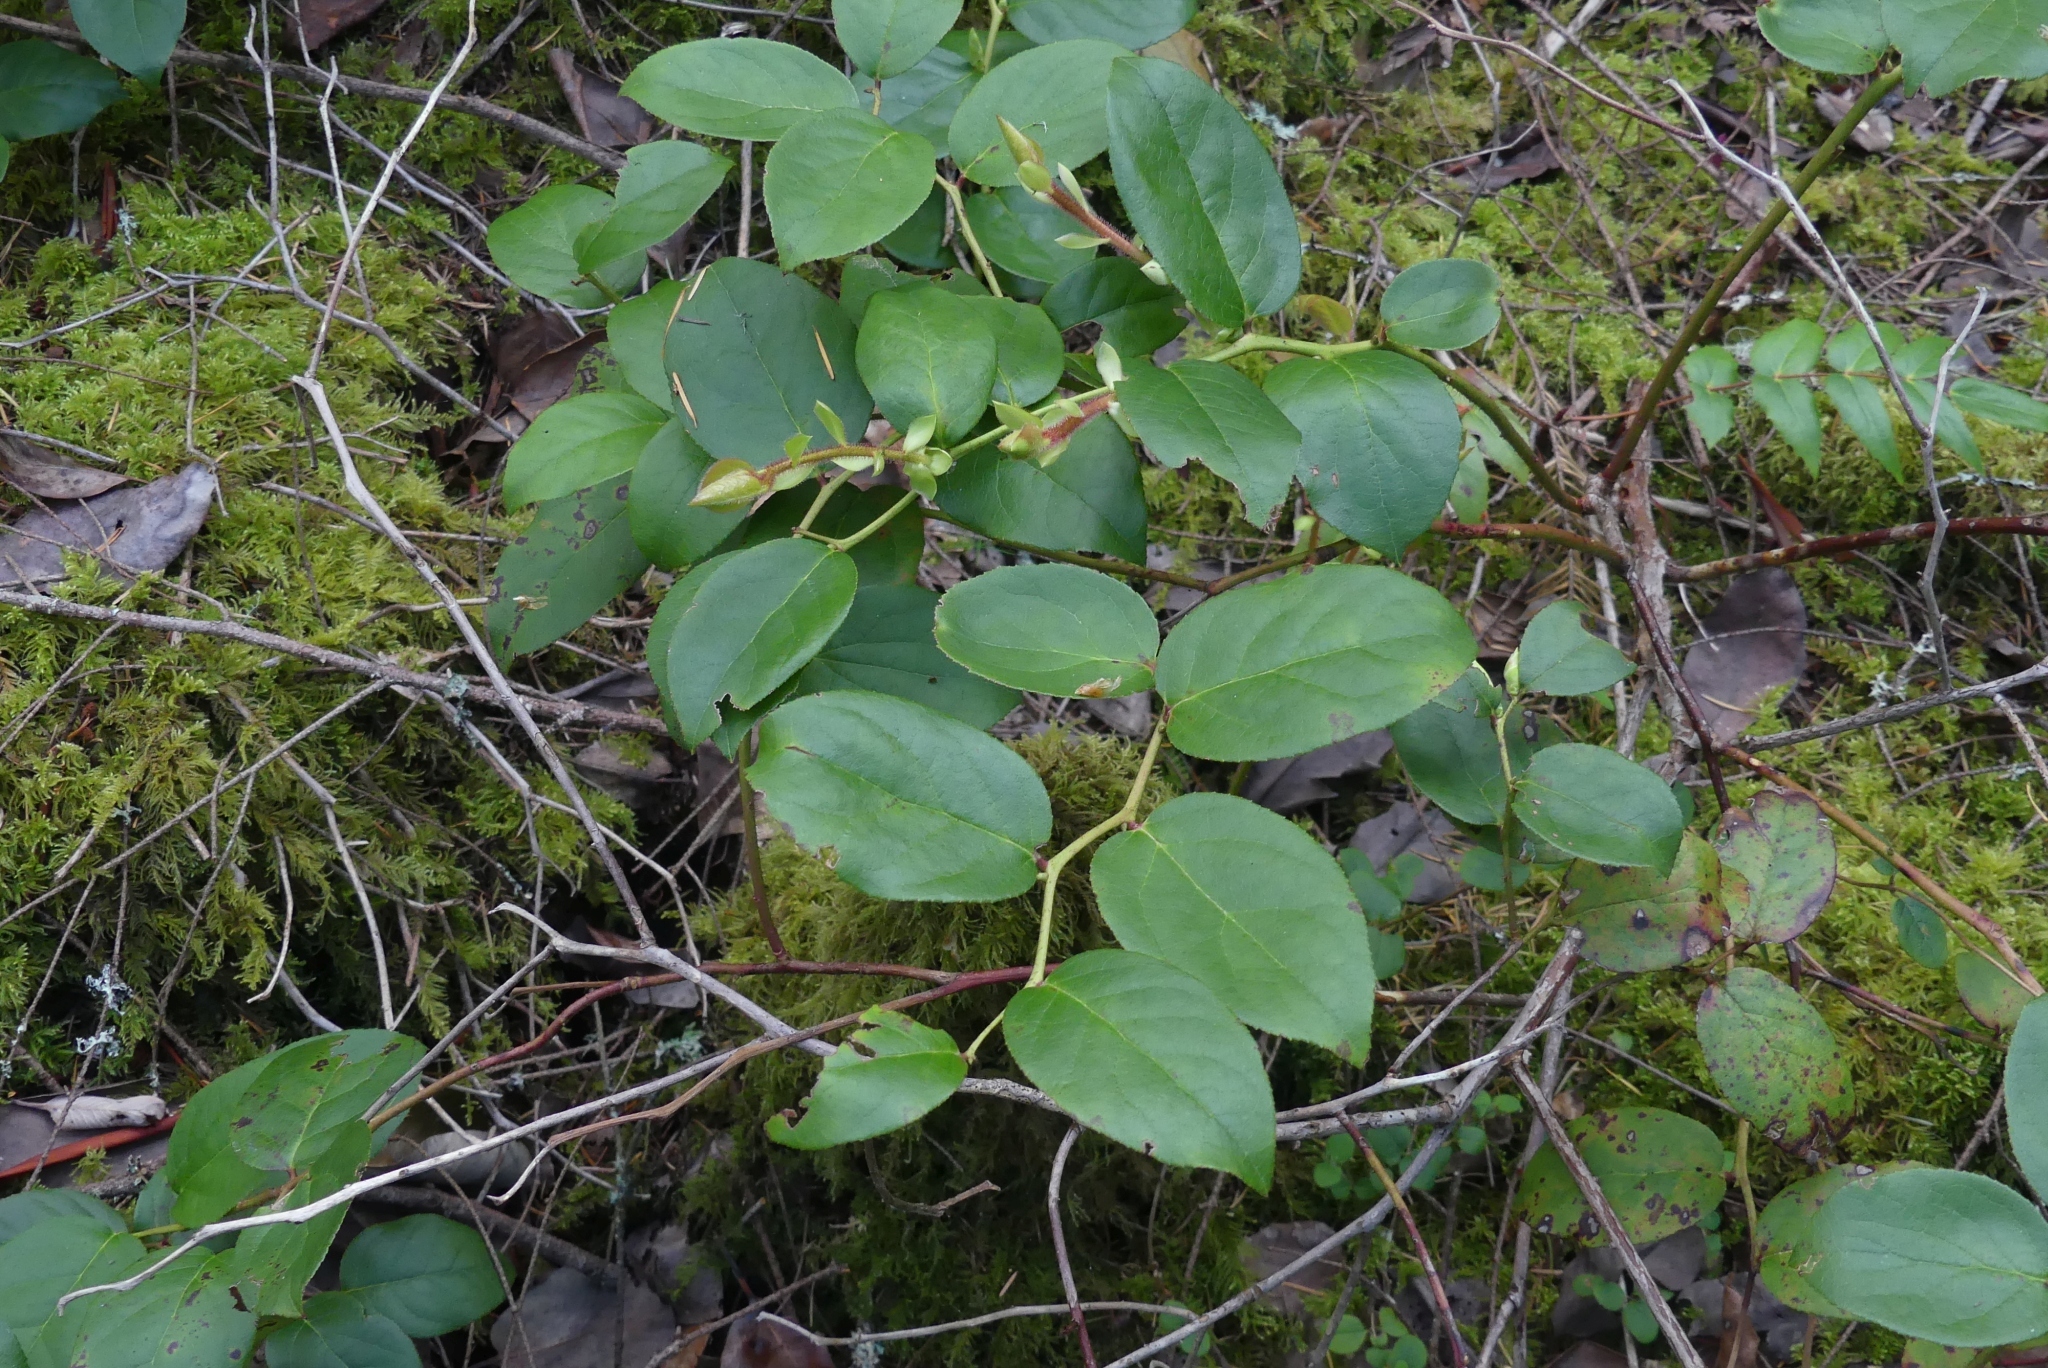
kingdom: Plantae
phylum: Tracheophyta
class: Magnoliopsida
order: Ericales
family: Ericaceae
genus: Gaultheria
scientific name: Gaultheria shallon
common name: Shallon
